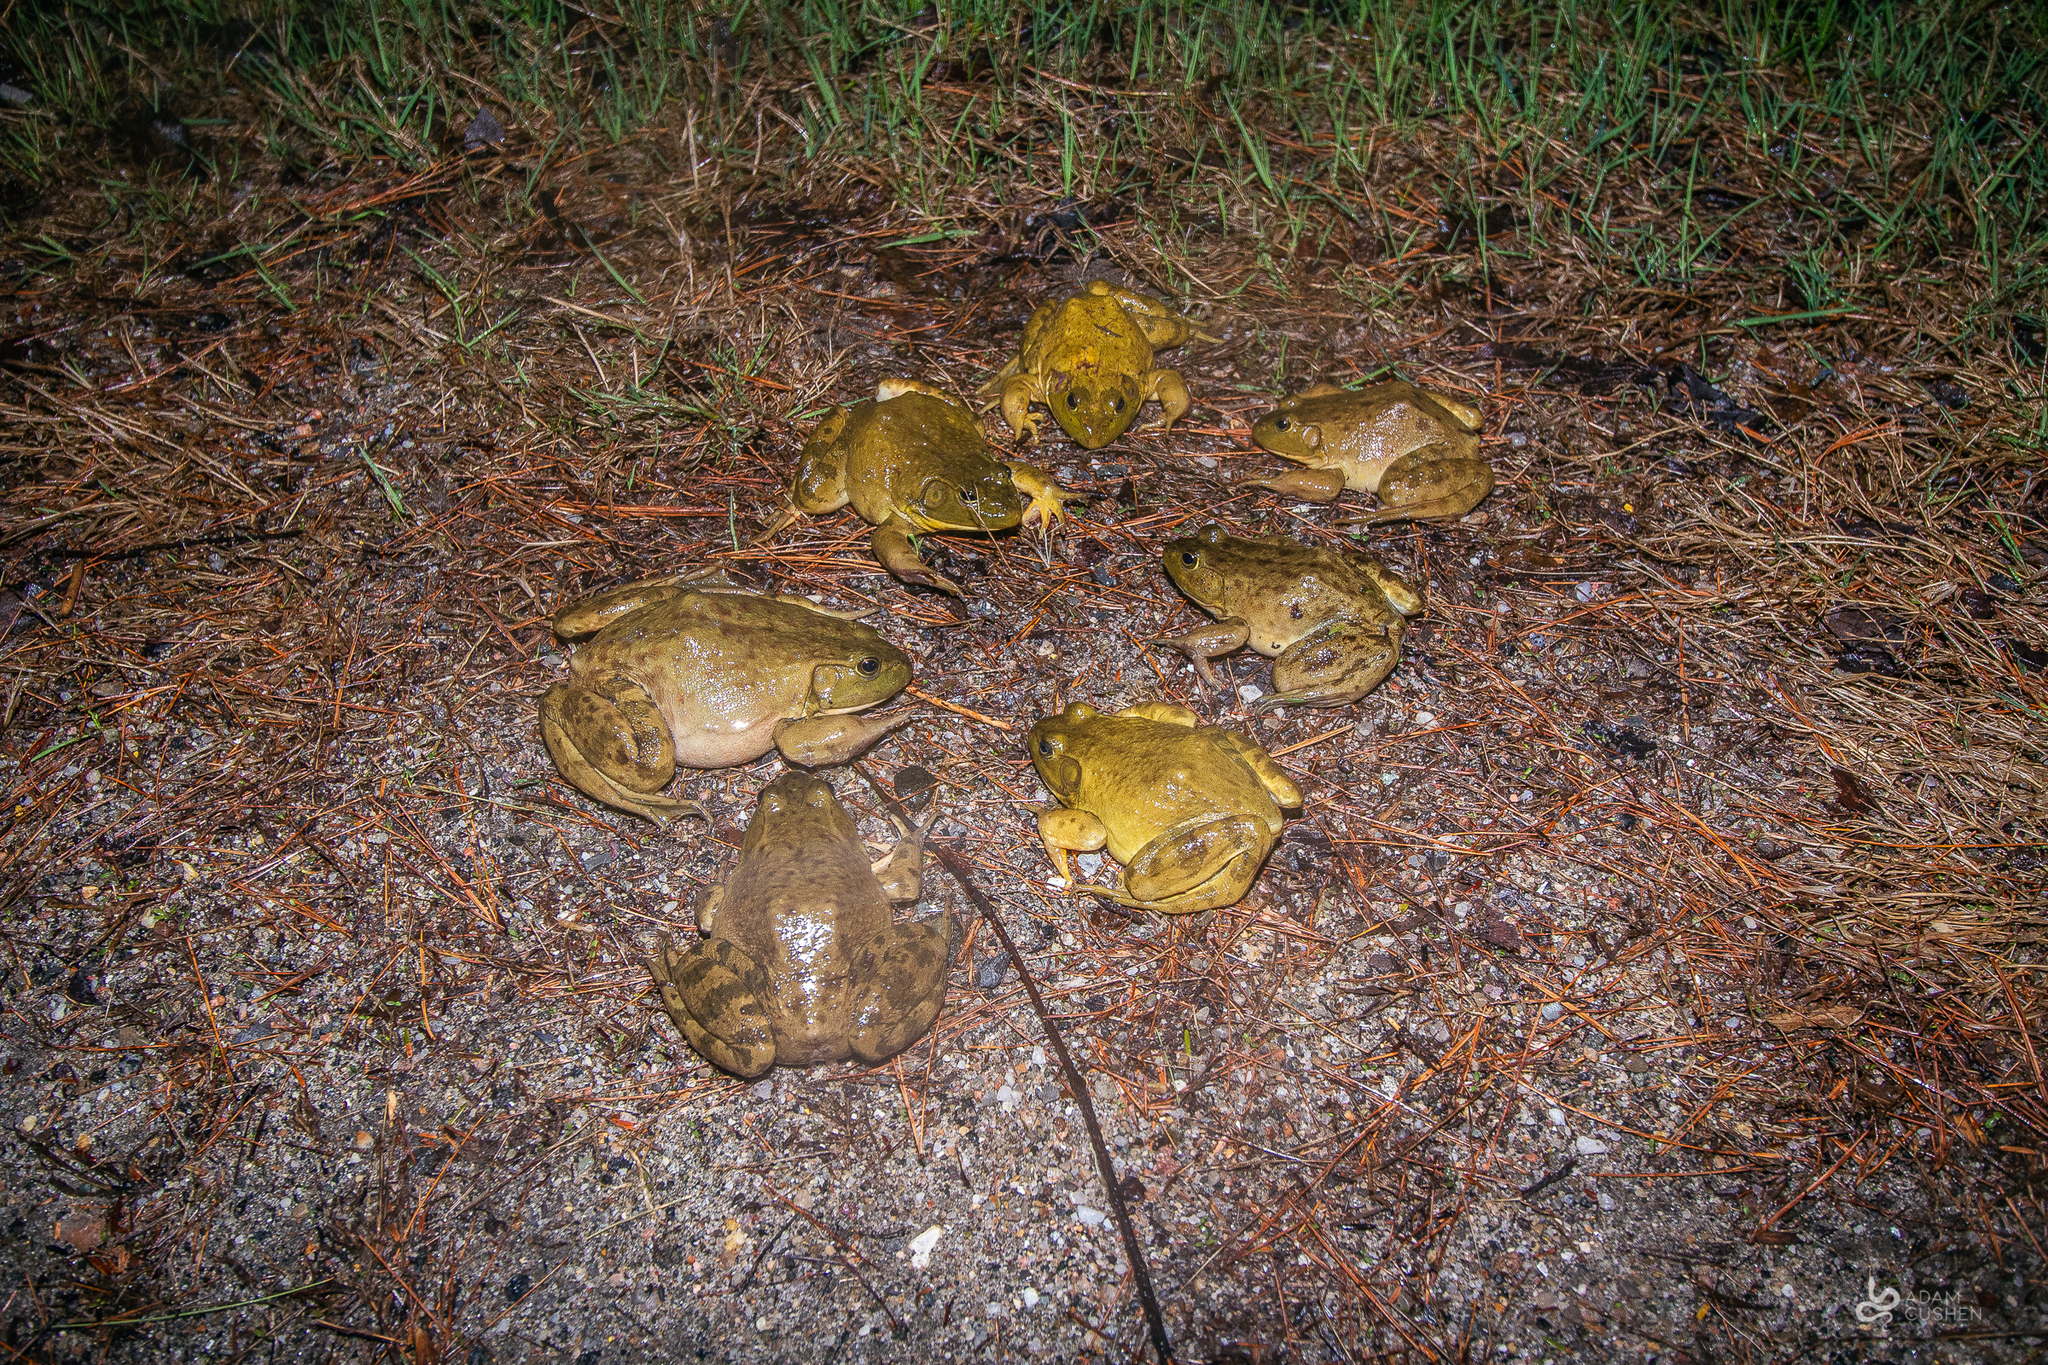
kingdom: Animalia
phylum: Chordata
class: Amphibia
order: Anura
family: Ranidae
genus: Lithobates
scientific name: Lithobates catesbeianus
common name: American bullfrog
